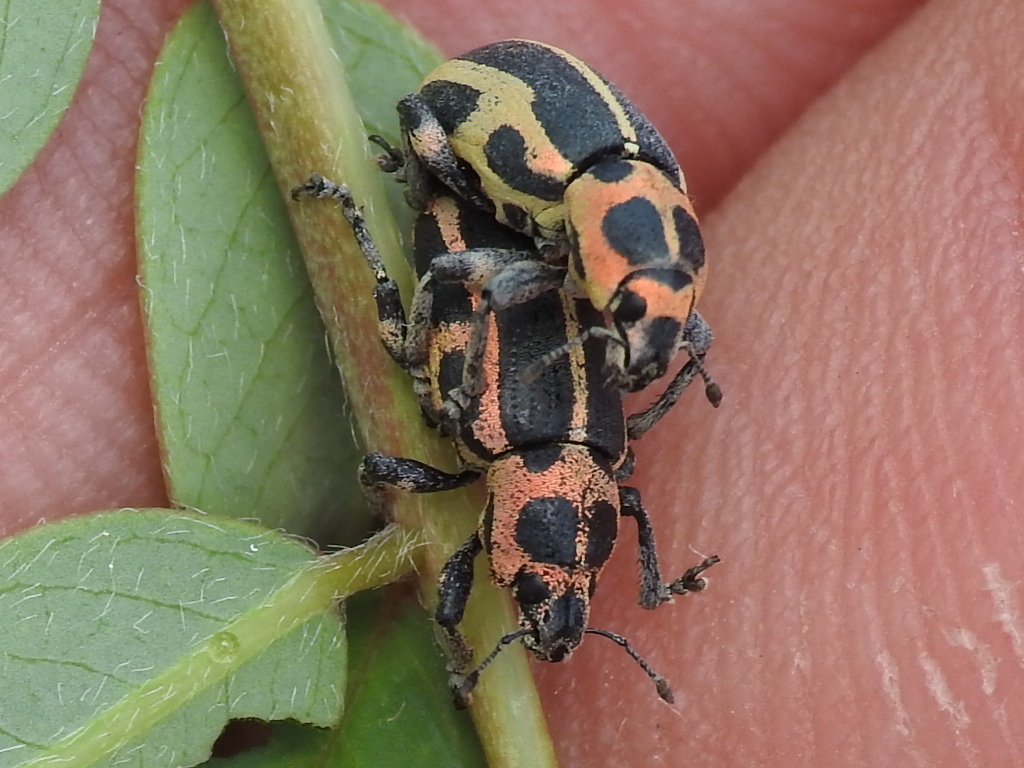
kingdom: Animalia
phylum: Arthropoda
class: Insecta
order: Coleoptera
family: Curculionidae
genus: Eudiagogus
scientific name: Eudiagogus pulcher
